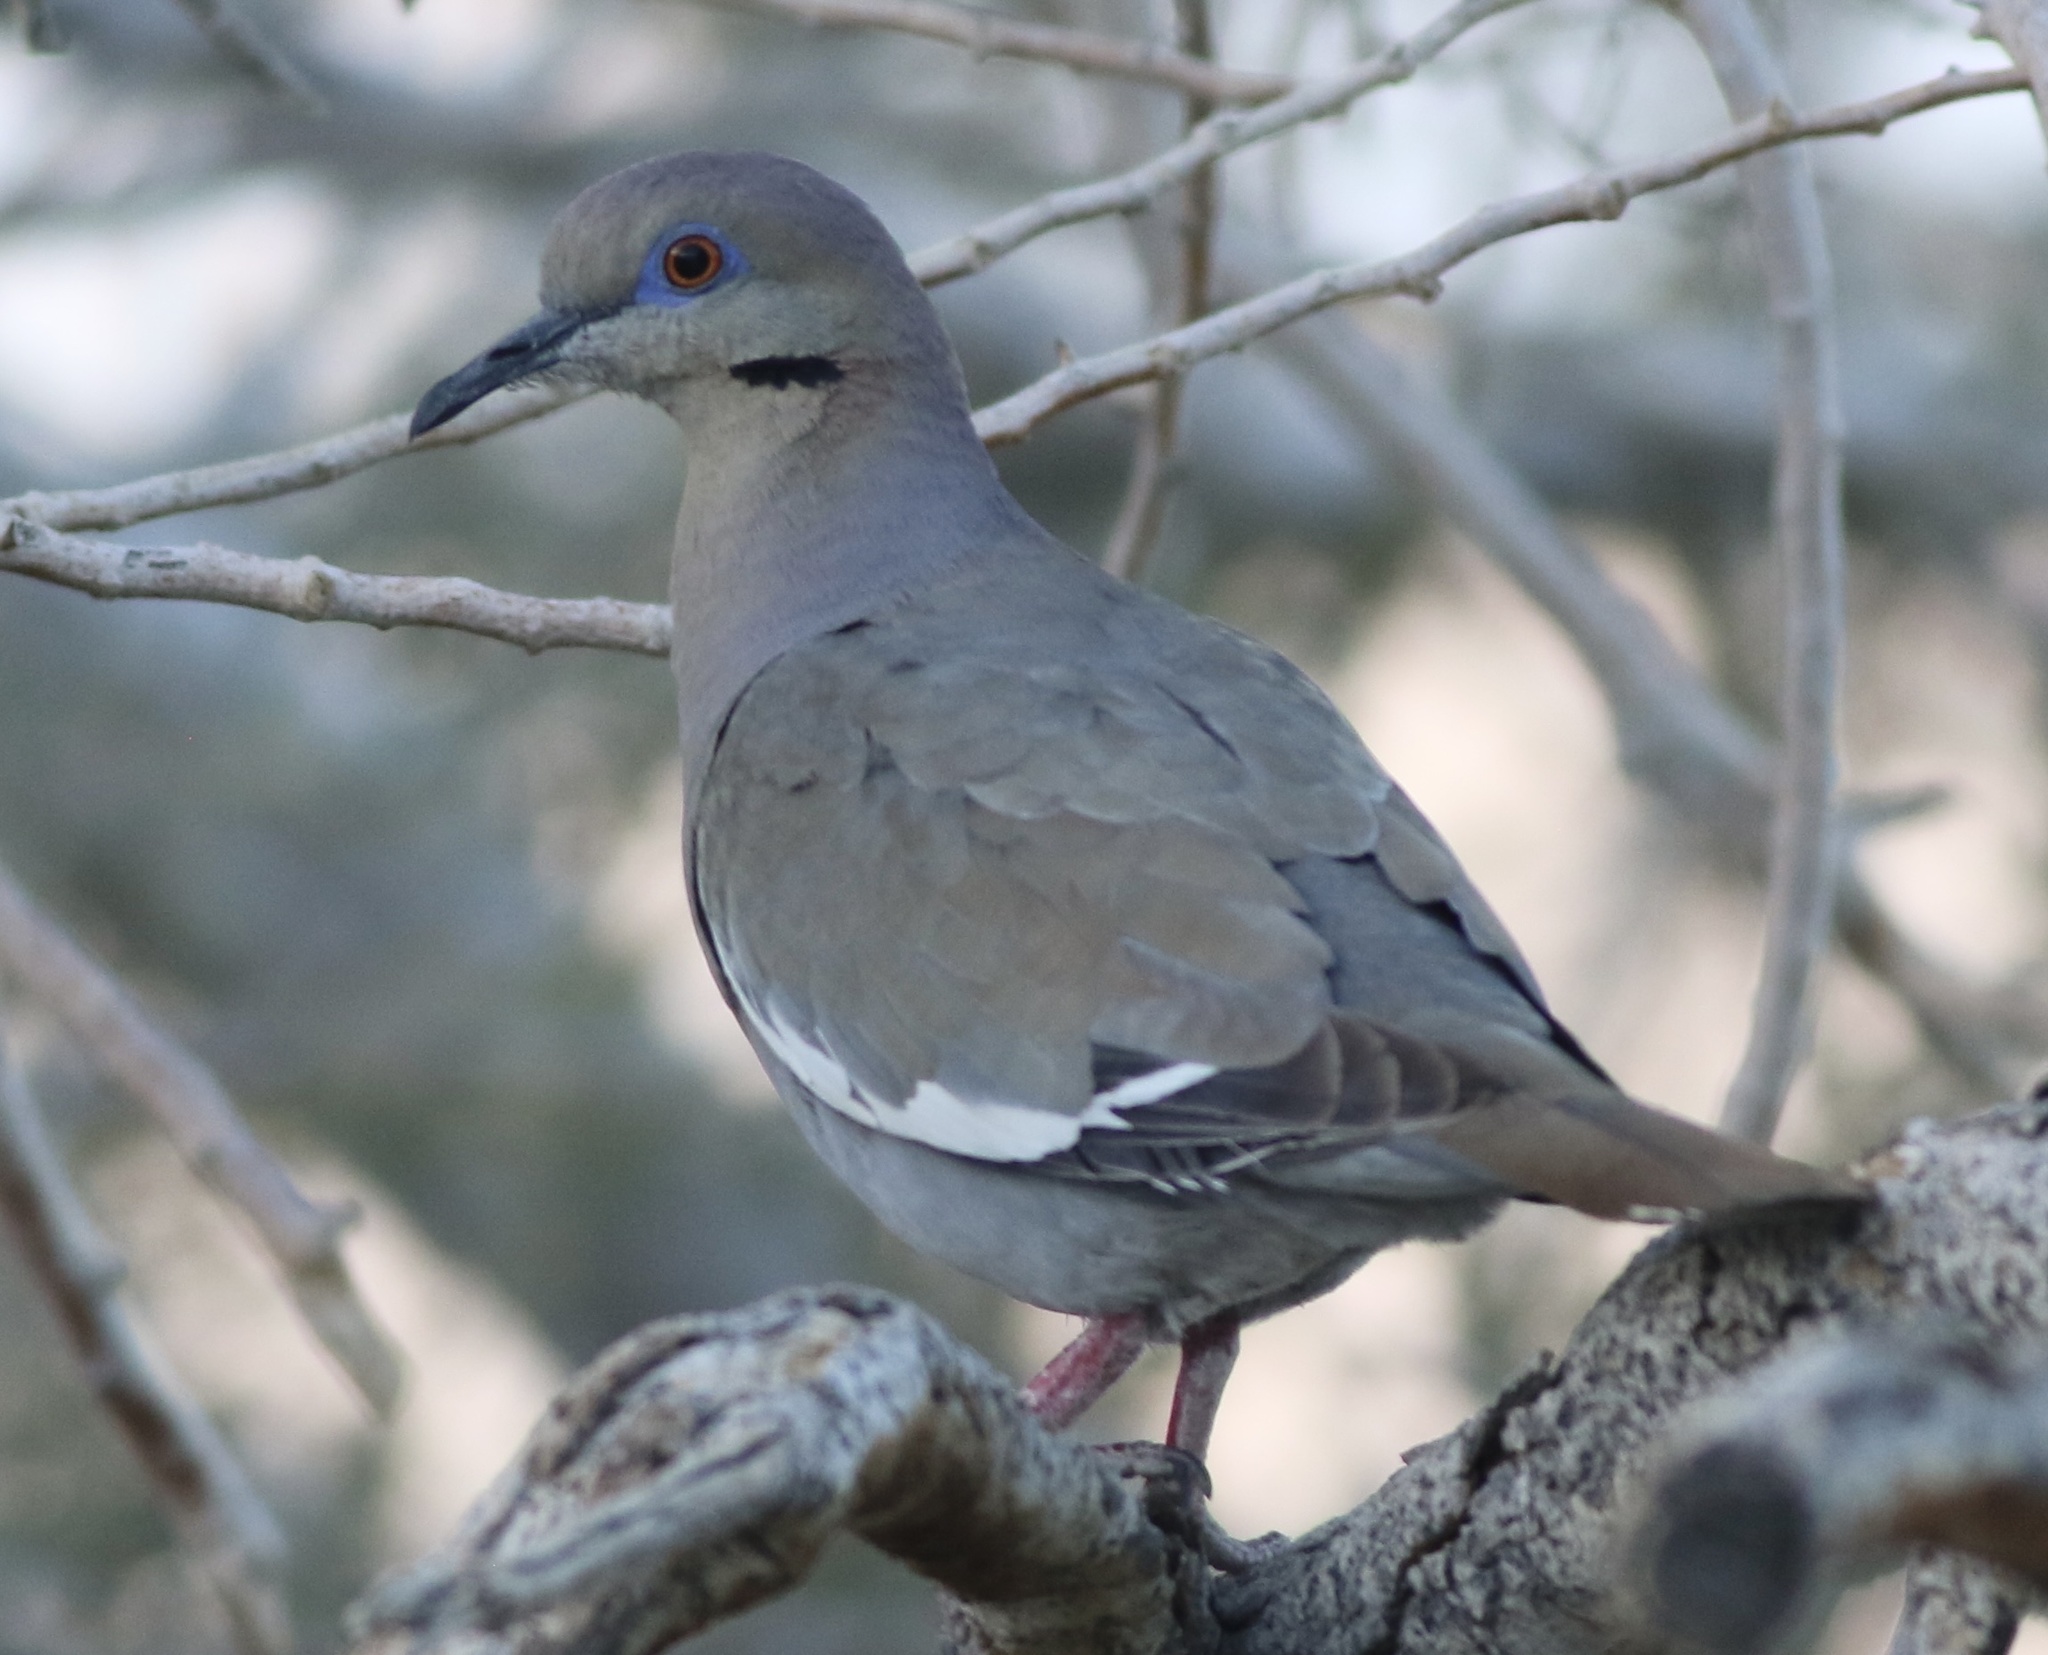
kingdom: Animalia
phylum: Chordata
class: Aves
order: Columbiformes
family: Columbidae
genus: Zenaida
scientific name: Zenaida asiatica
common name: White-winged dove
